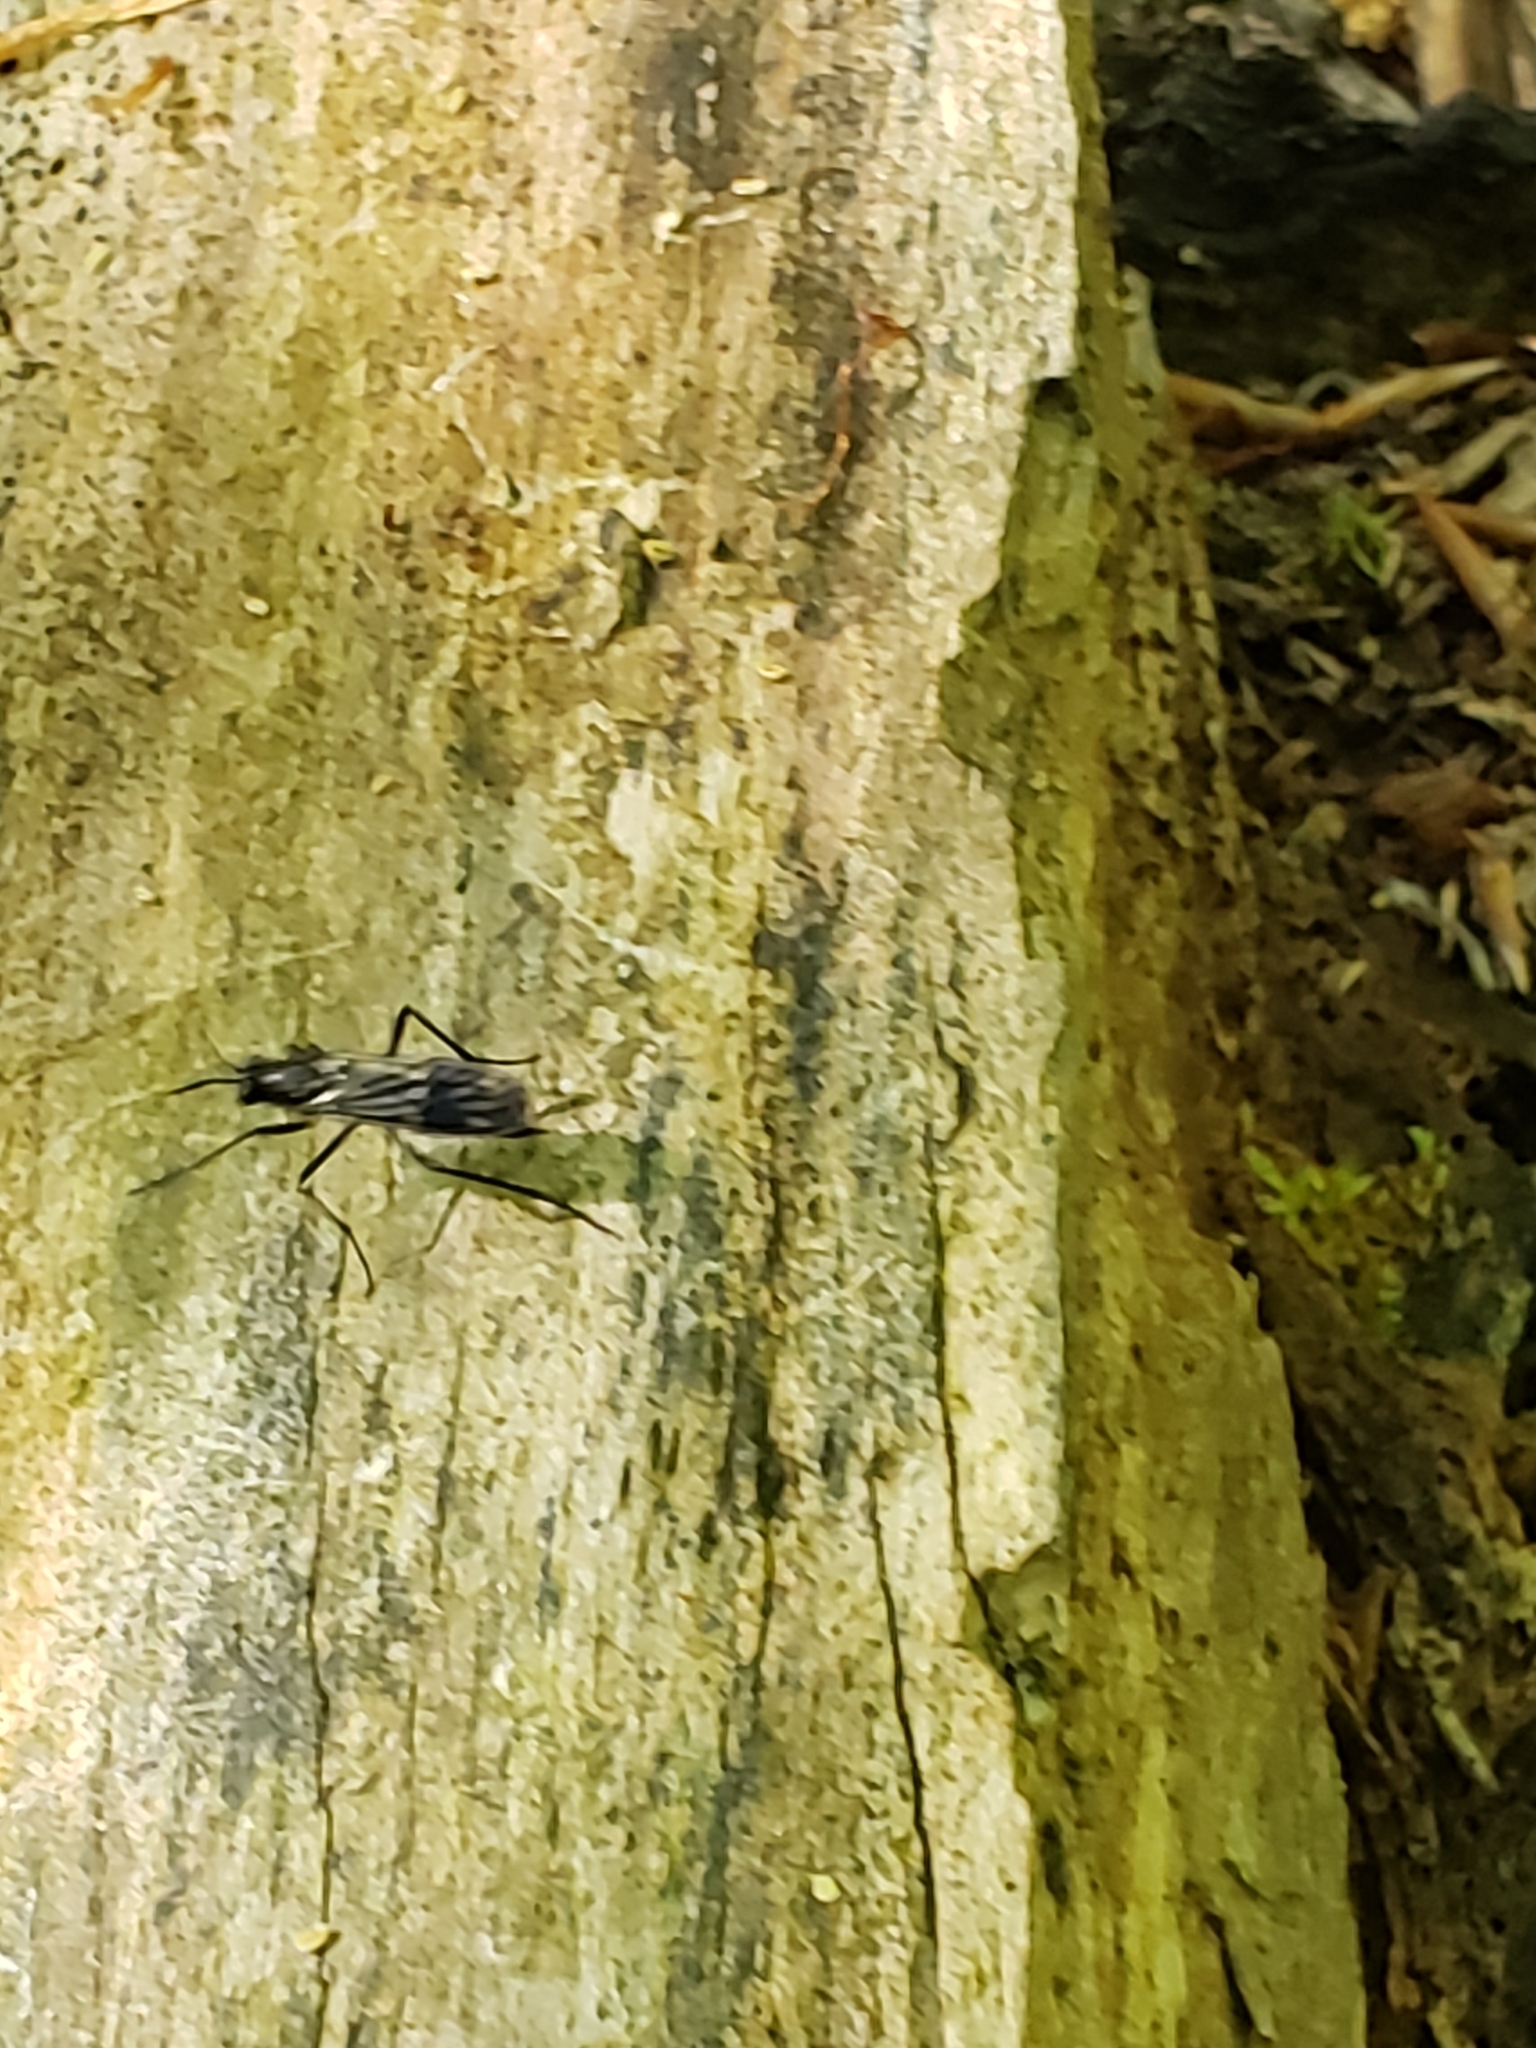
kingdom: Animalia
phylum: Arthropoda
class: Insecta
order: Diptera
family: Xylophagidae
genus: Xylophagus
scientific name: Xylophagus reflectens
